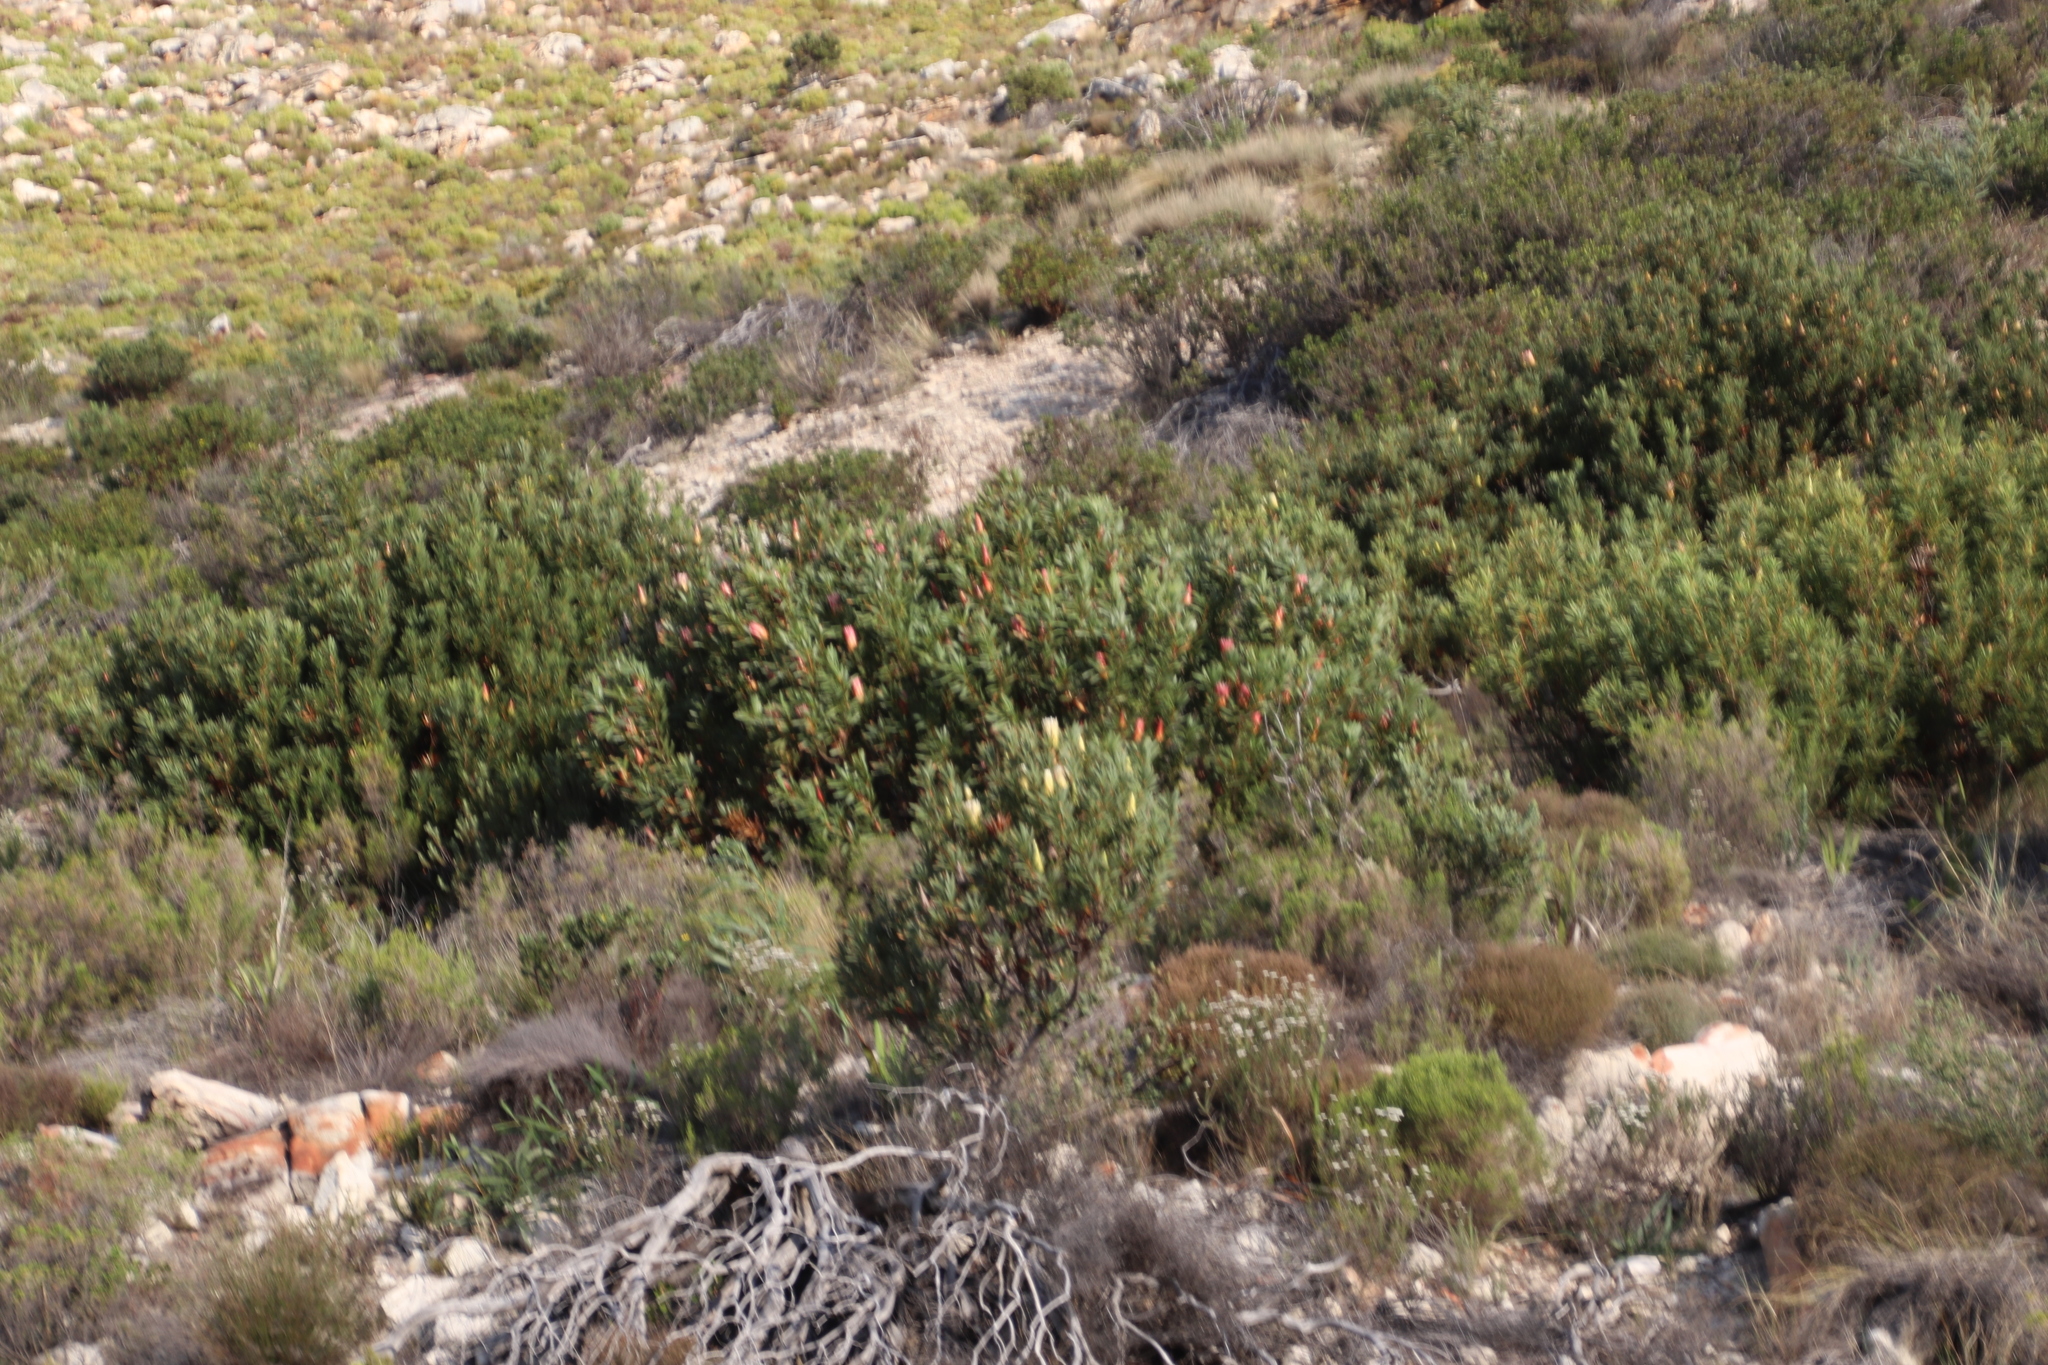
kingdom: Plantae
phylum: Tracheophyta
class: Magnoliopsida
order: Proteales
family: Proteaceae
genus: Protea
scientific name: Protea repens
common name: Sugarbush
